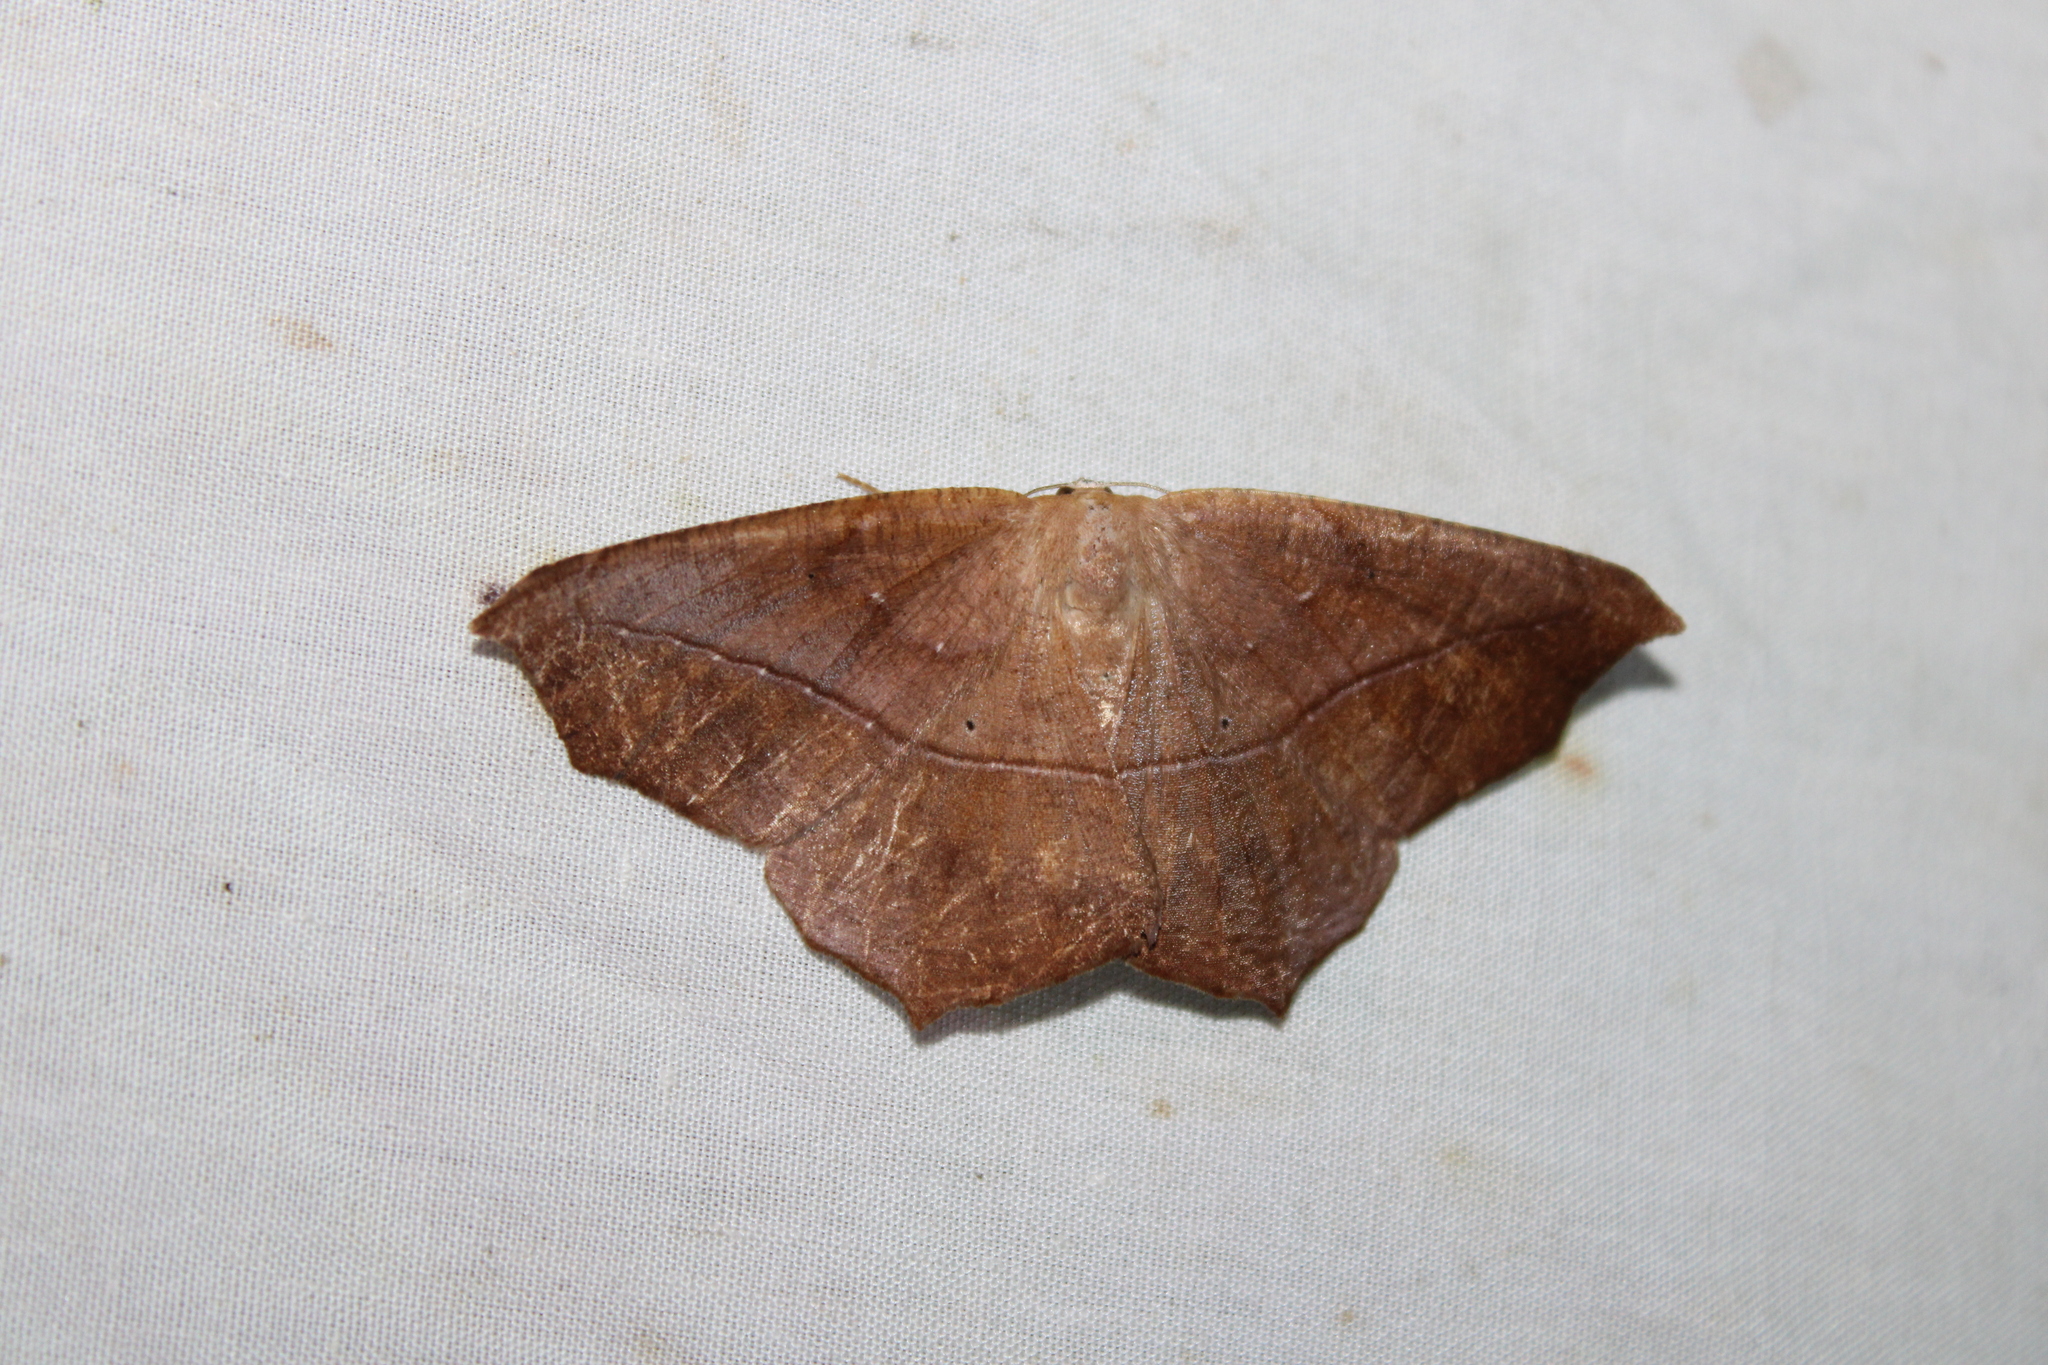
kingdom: Animalia
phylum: Arthropoda
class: Insecta
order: Lepidoptera
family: Geometridae
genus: Prochoerodes
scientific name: Prochoerodes lineola
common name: Large maple spanworm
